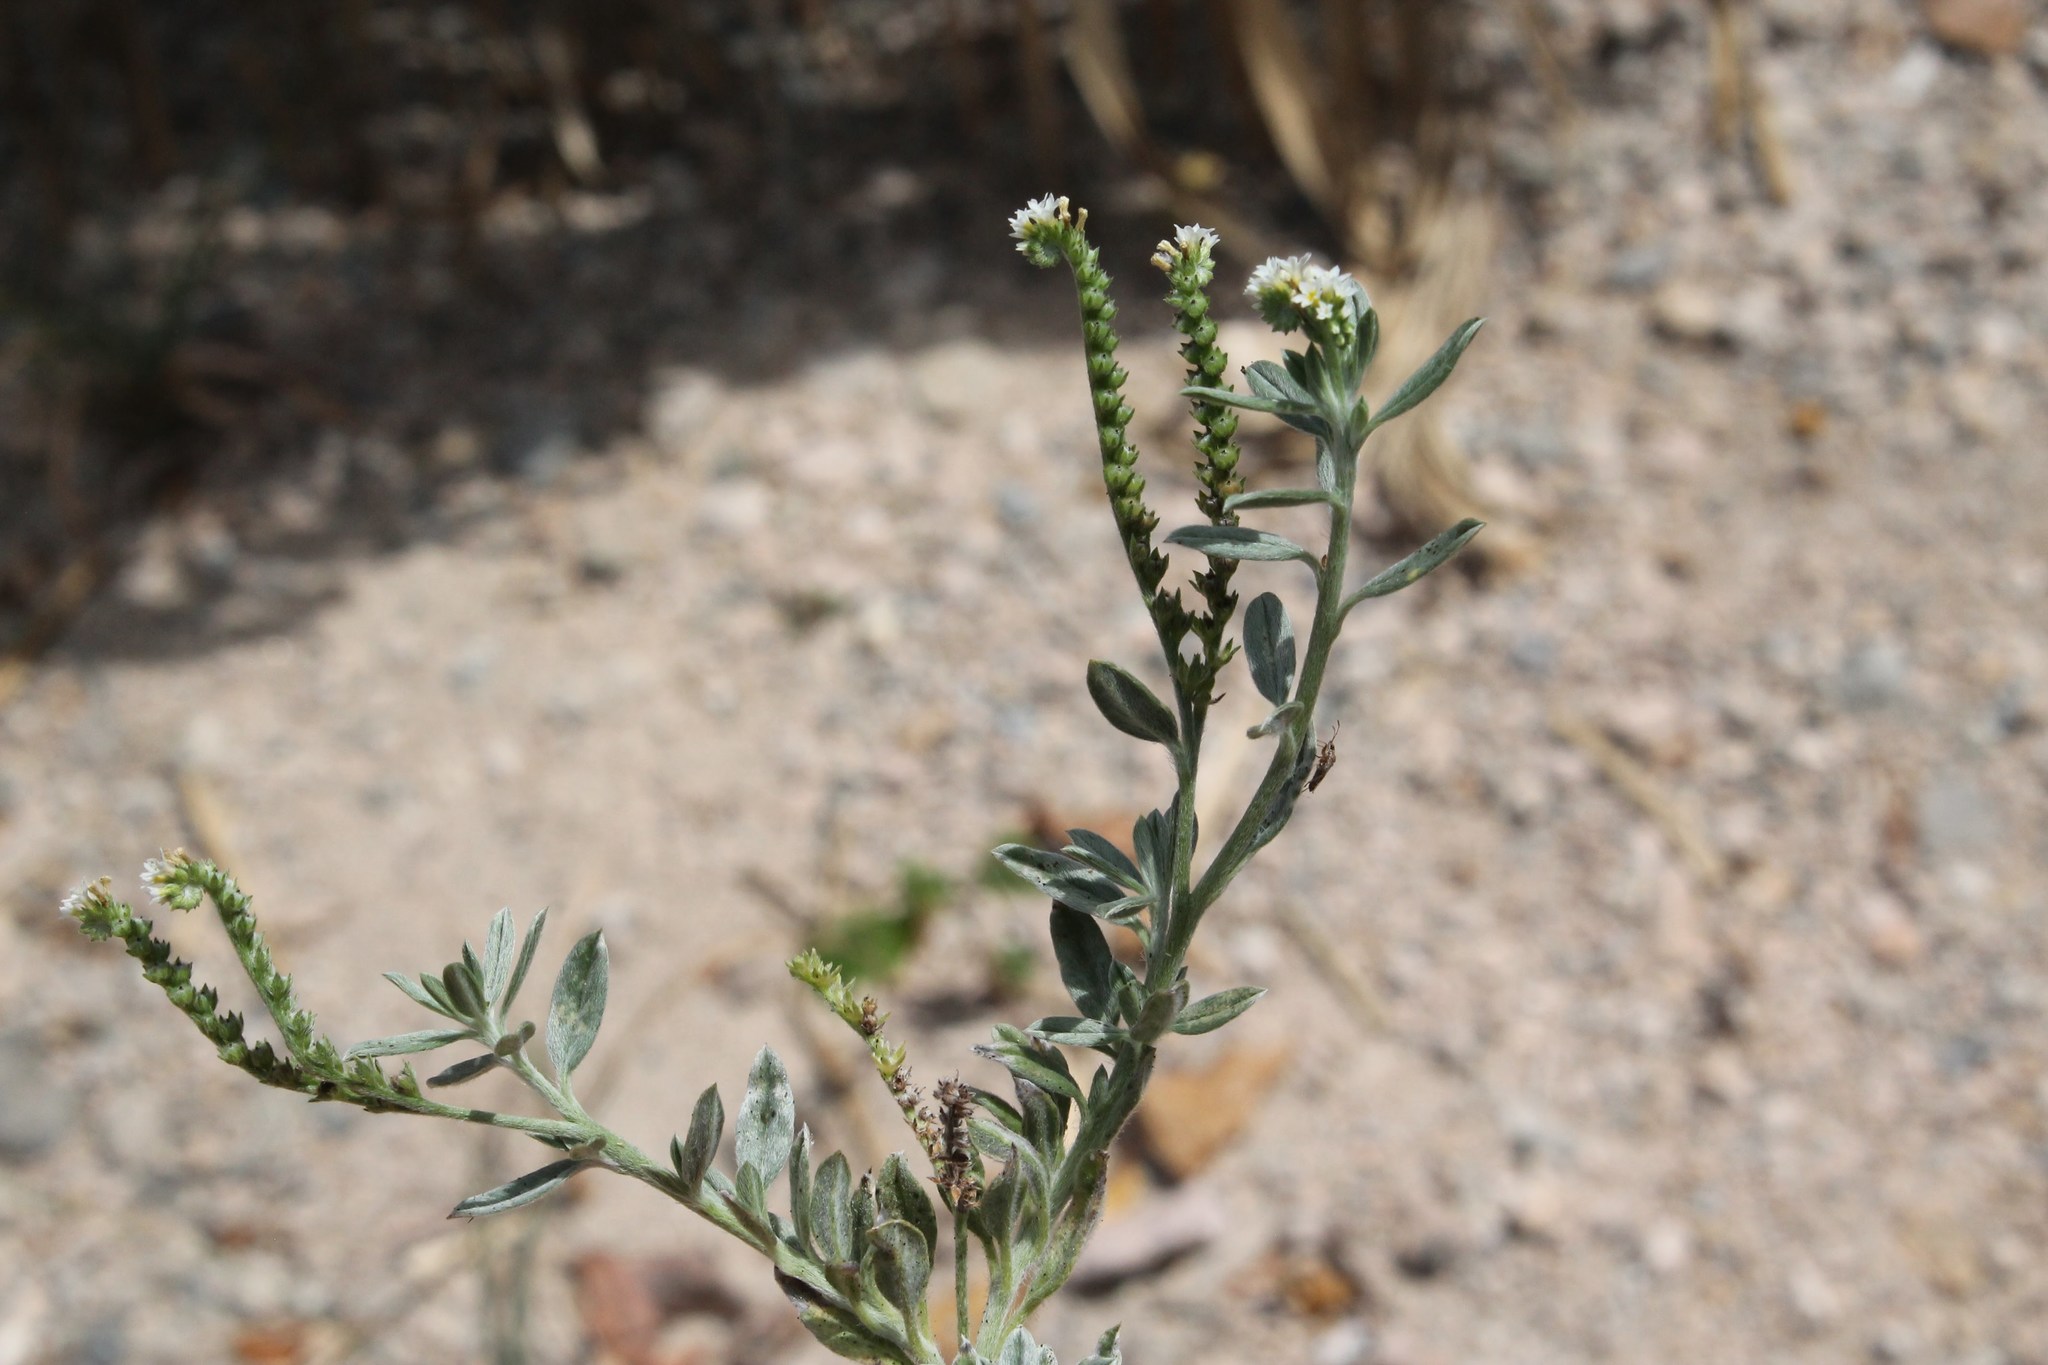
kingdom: Plantae
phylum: Tracheophyta
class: Magnoliopsida
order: Boraginales
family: Heliotropiaceae
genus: Euploca
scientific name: Euploca procumbens
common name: Fourspike heliotrope
